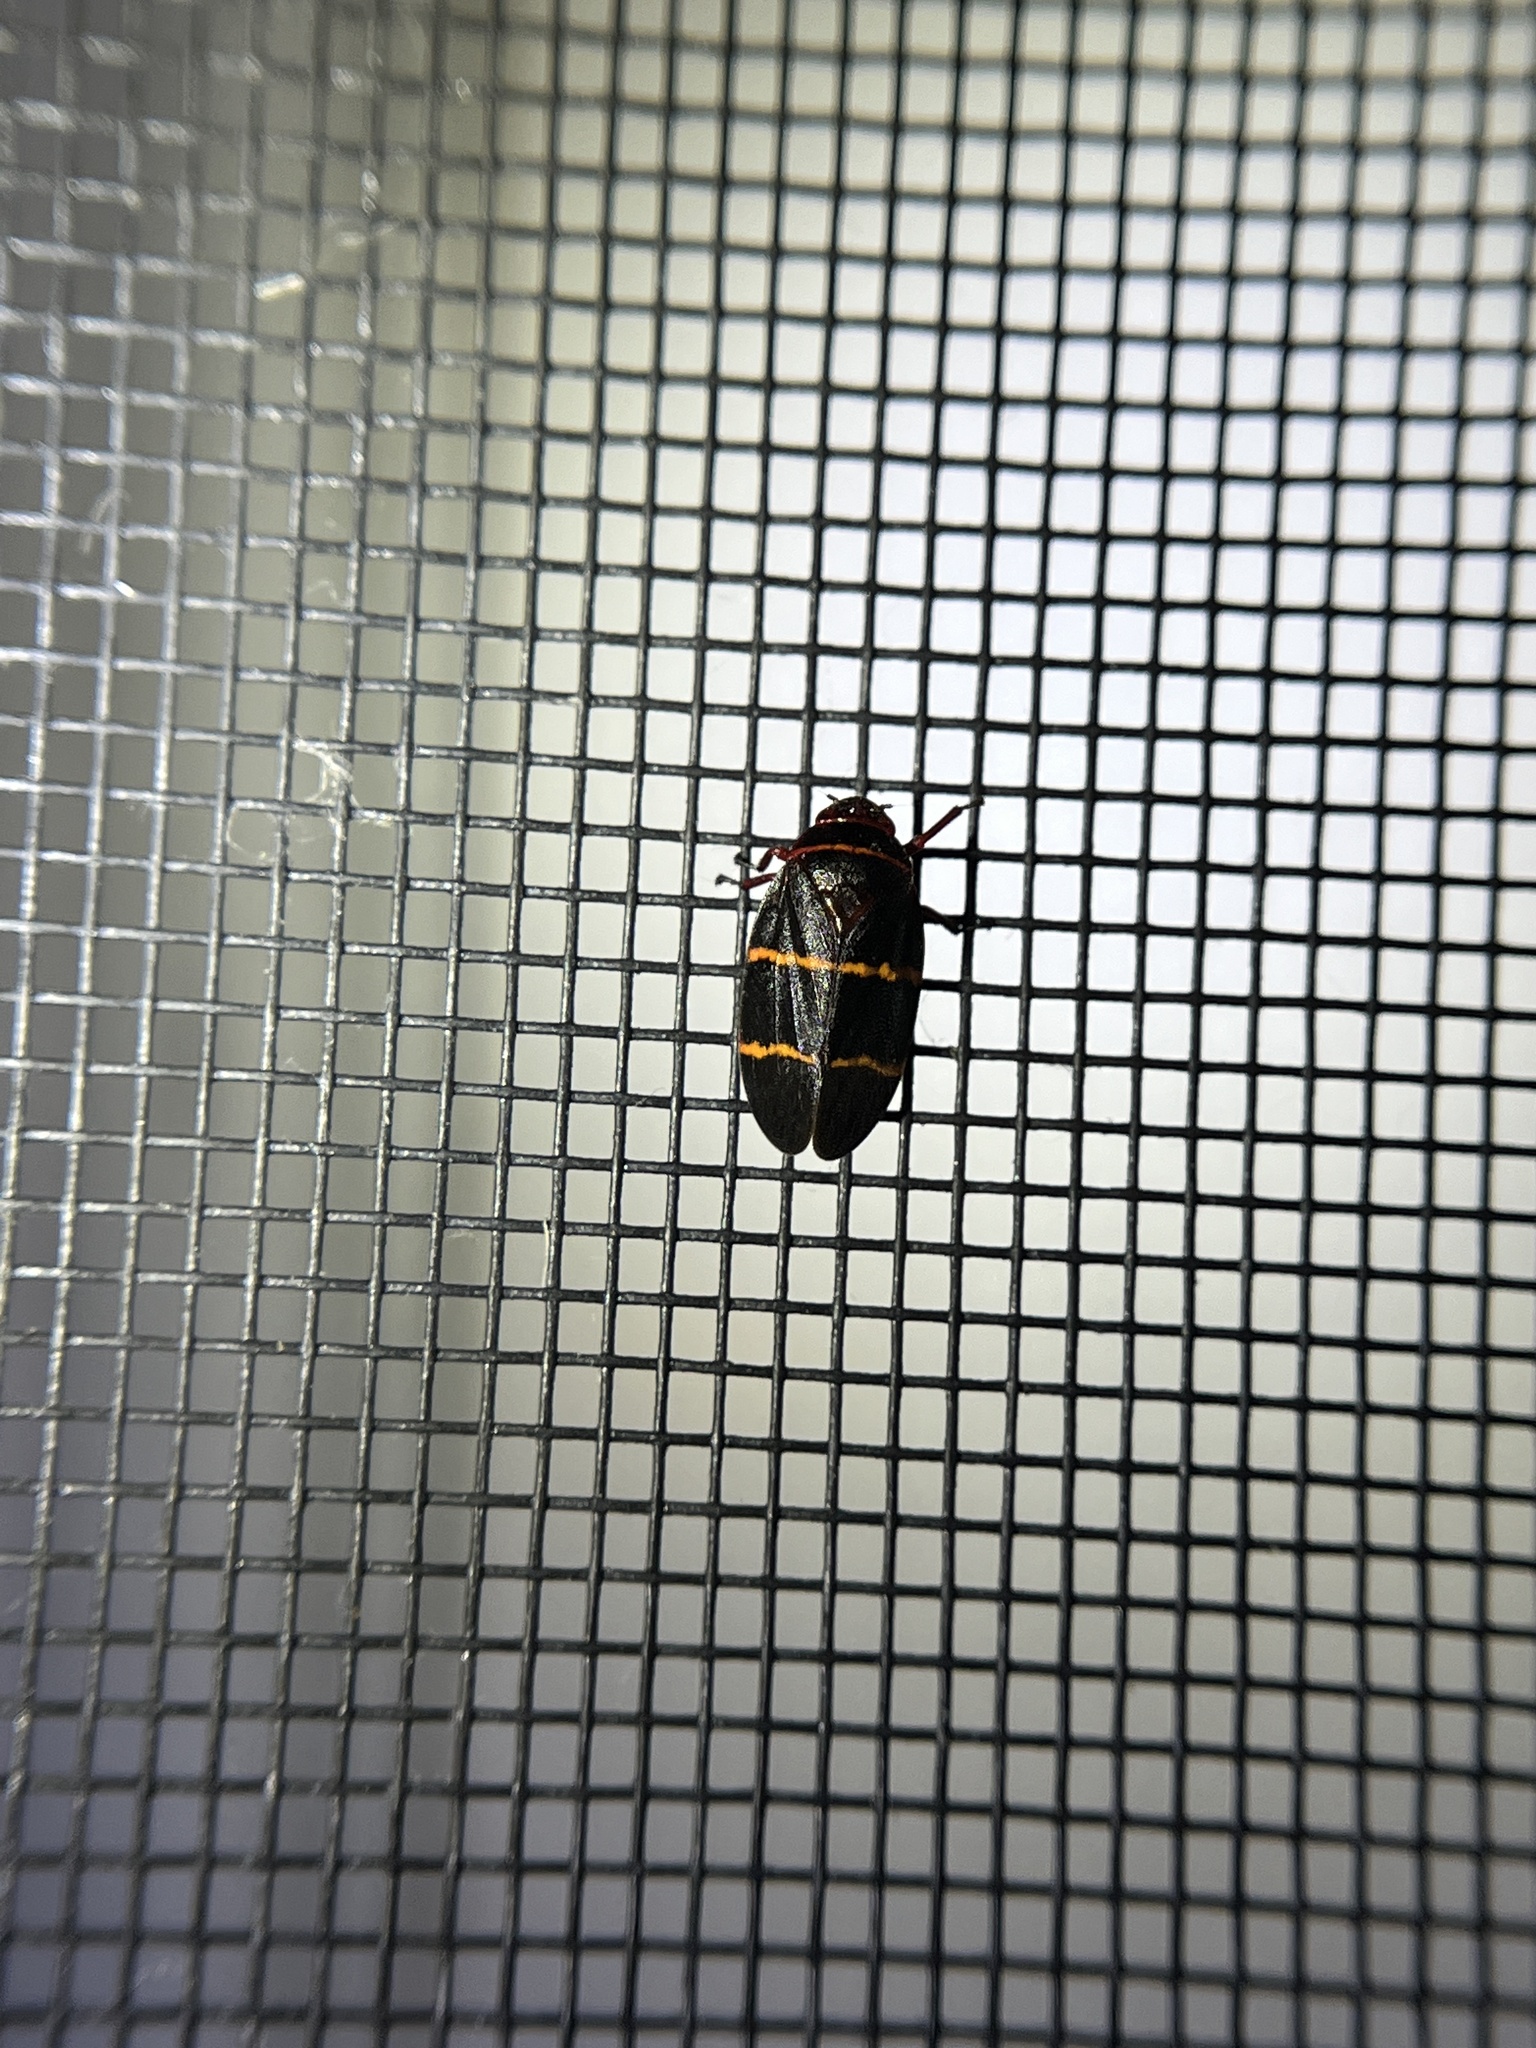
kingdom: Animalia
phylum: Arthropoda
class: Insecta
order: Hemiptera
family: Cercopidae
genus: Prosapia
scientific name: Prosapia bicincta
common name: Twolined spittlebug
